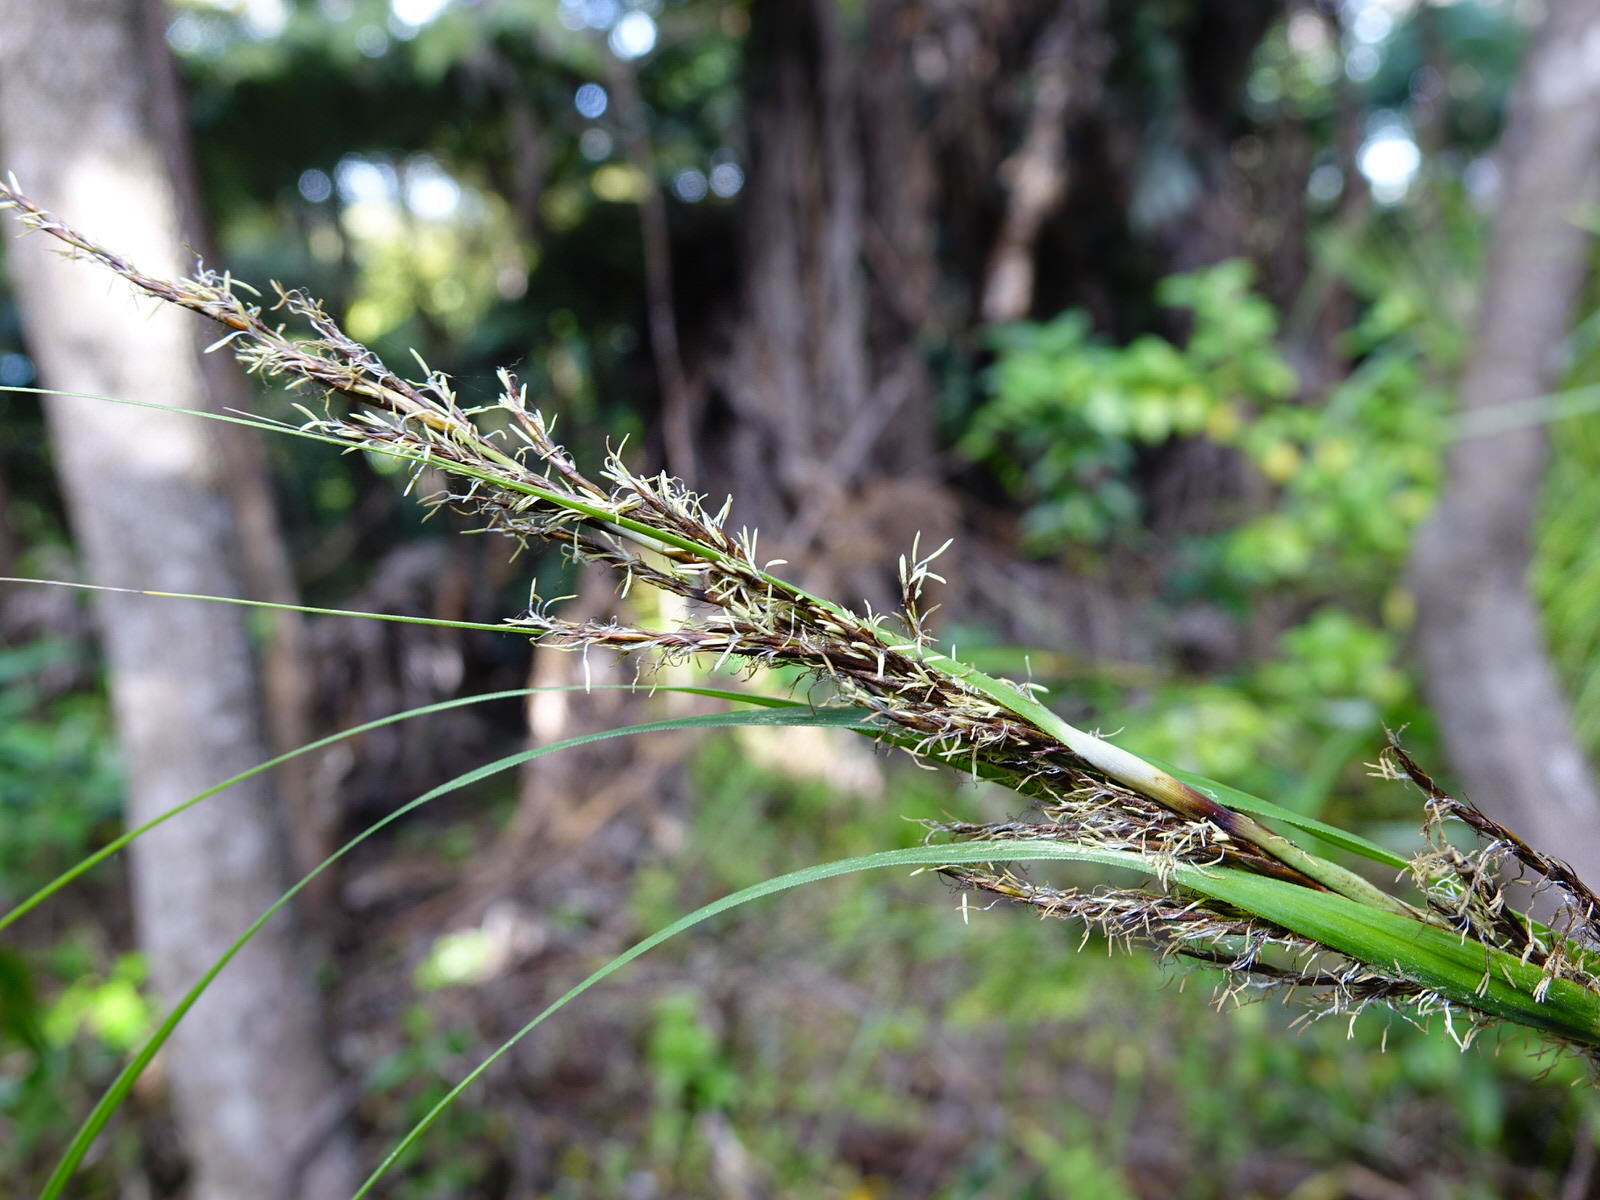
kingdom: Plantae
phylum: Tracheophyta
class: Liliopsida
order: Poales
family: Cyperaceae
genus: Gahnia
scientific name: Gahnia lacera
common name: Sawsedge
